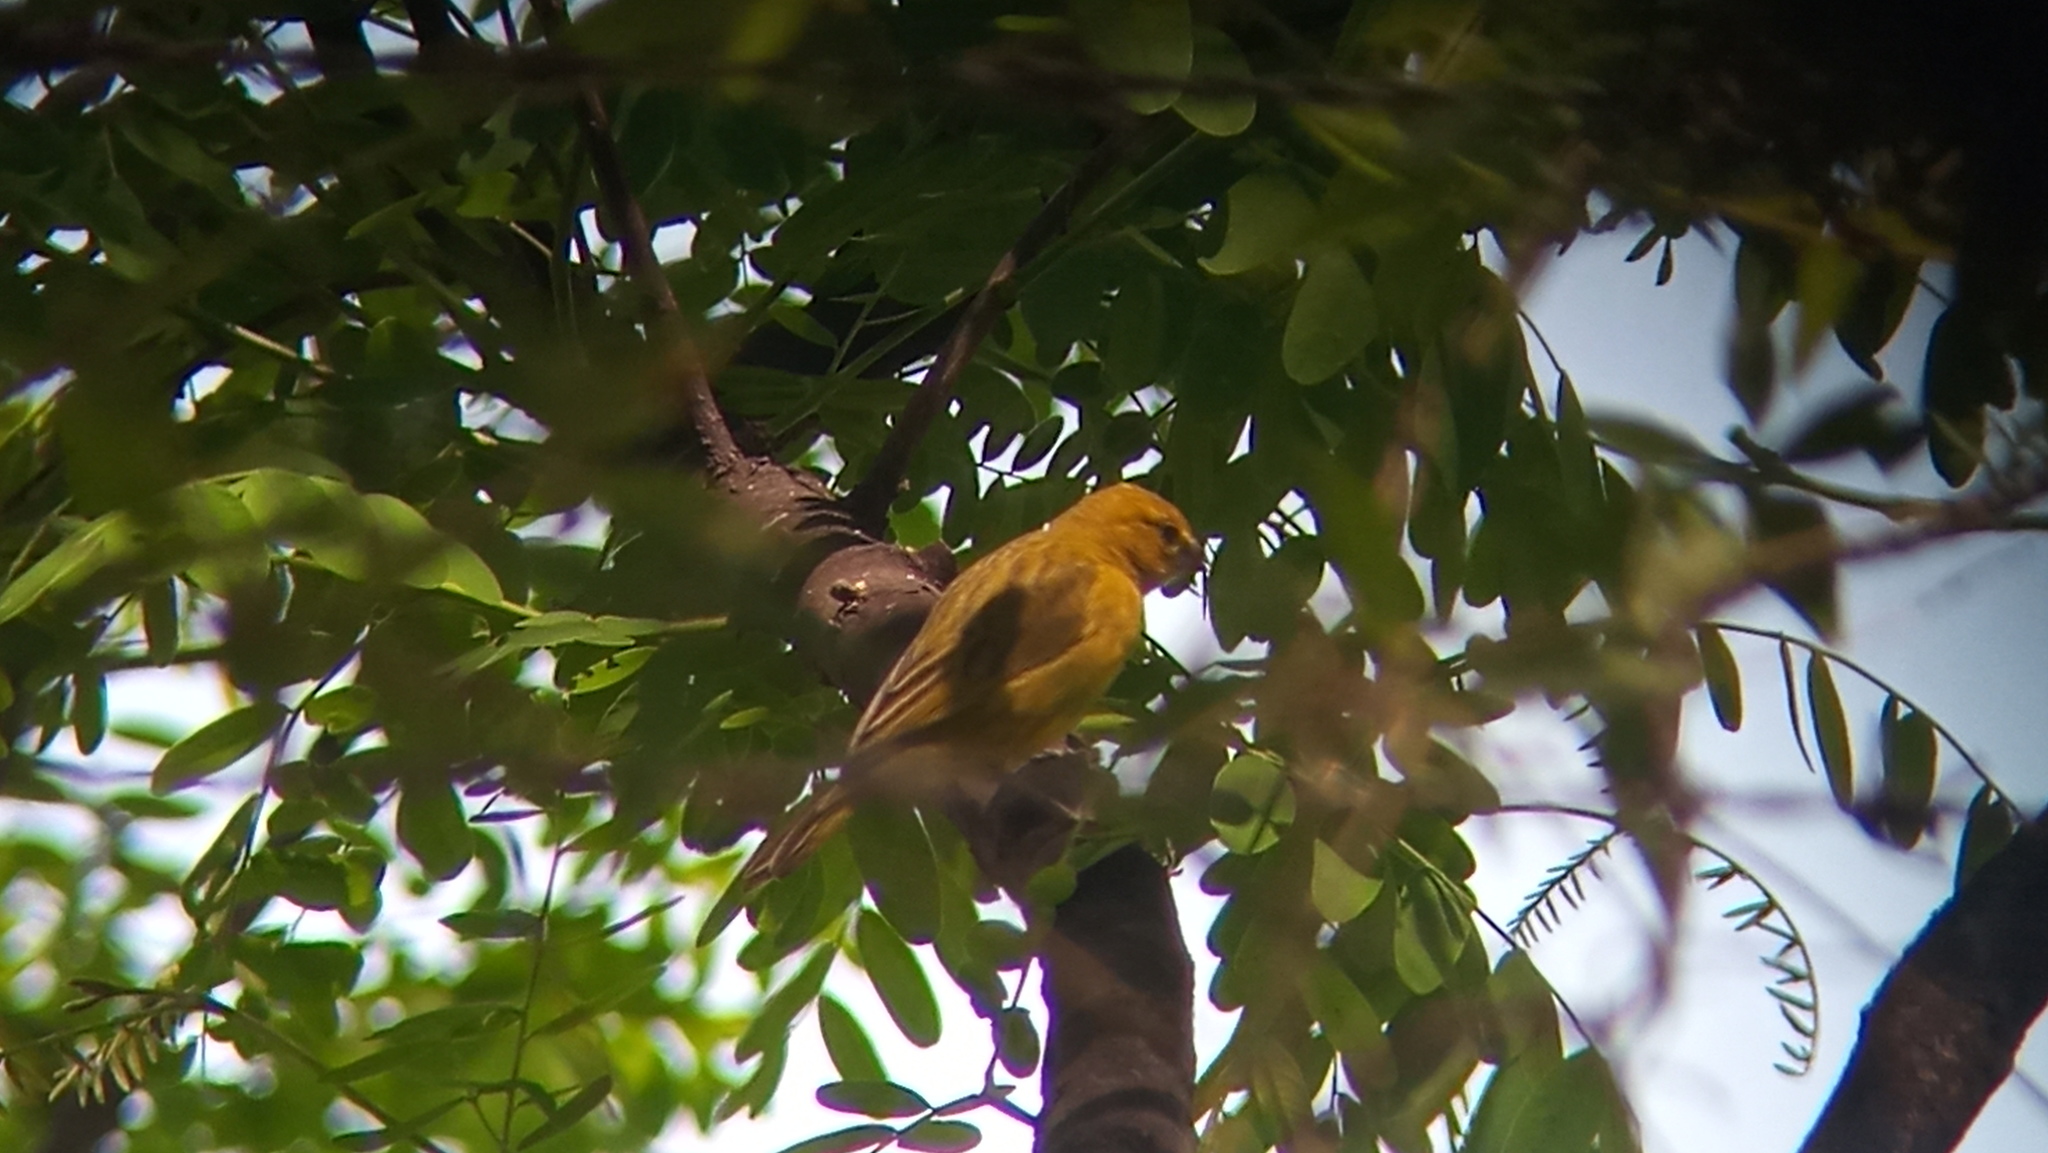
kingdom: Animalia
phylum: Chordata
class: Aves
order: Passeriformes
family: Thraupidae
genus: Sicalis
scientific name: Sicalis flaveola
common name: Saffron finch
